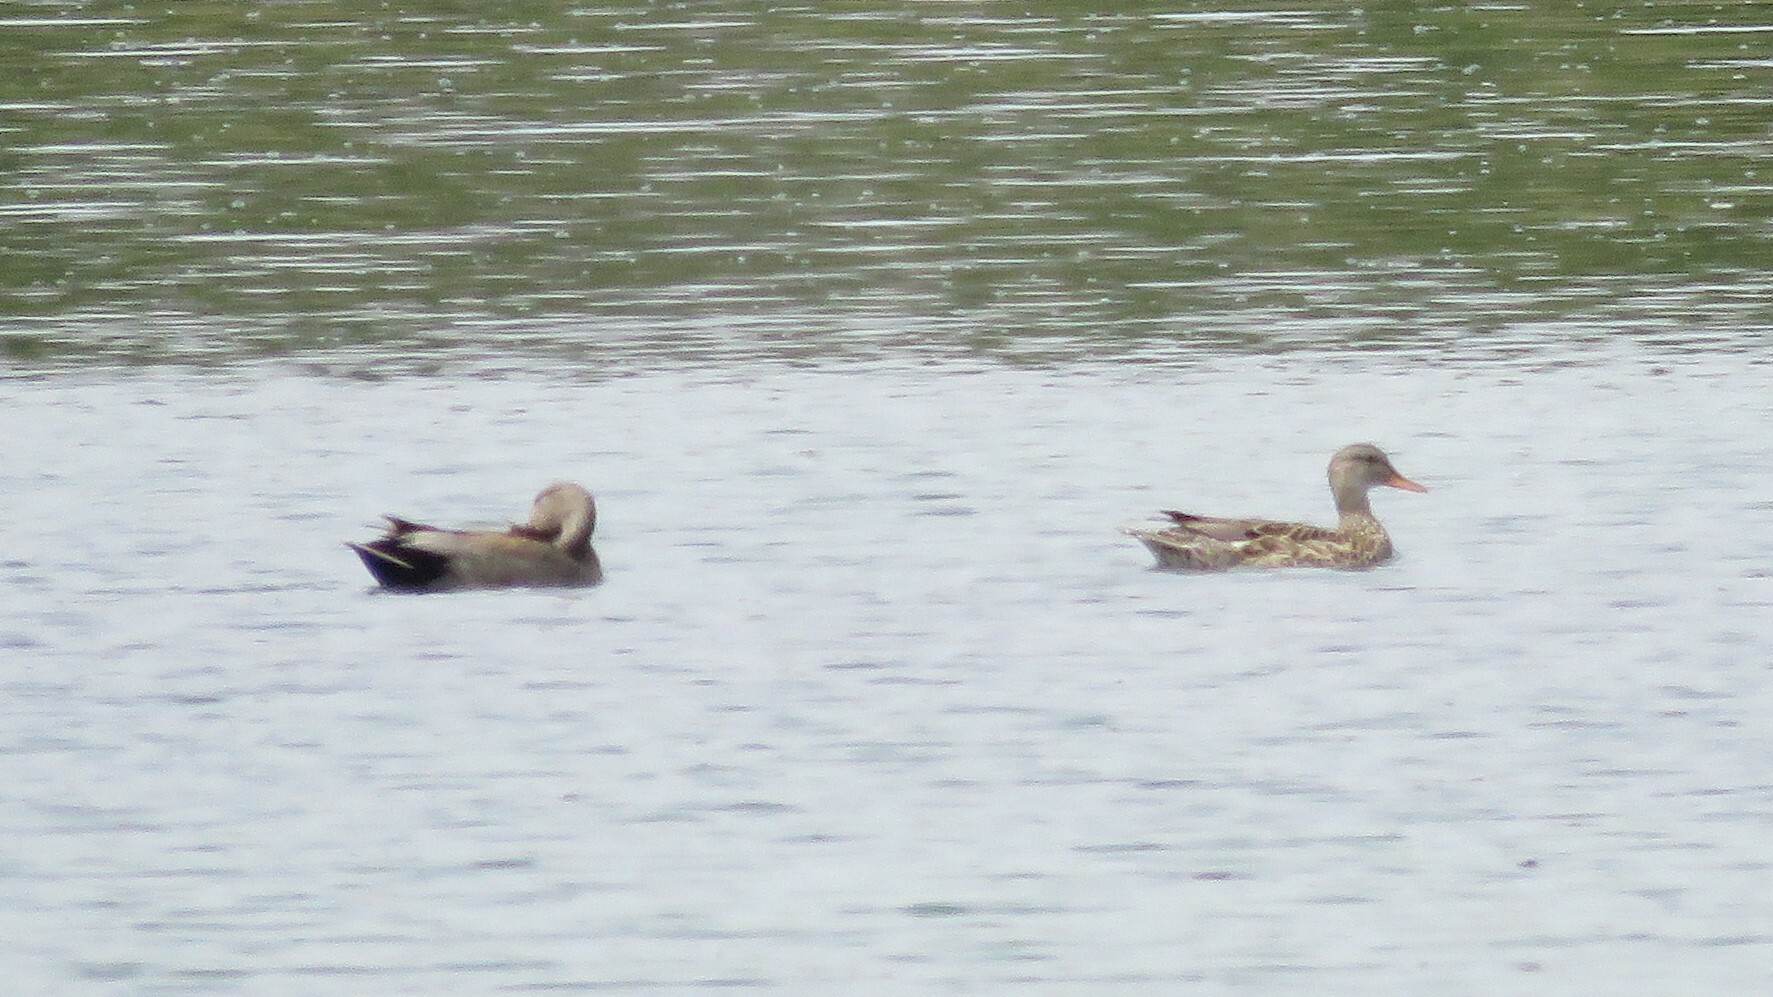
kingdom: Animalia
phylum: Chordata
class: Aves
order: Anseriformes
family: Anatidae
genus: Mareca
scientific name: Mareca strepera
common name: Gadwall
